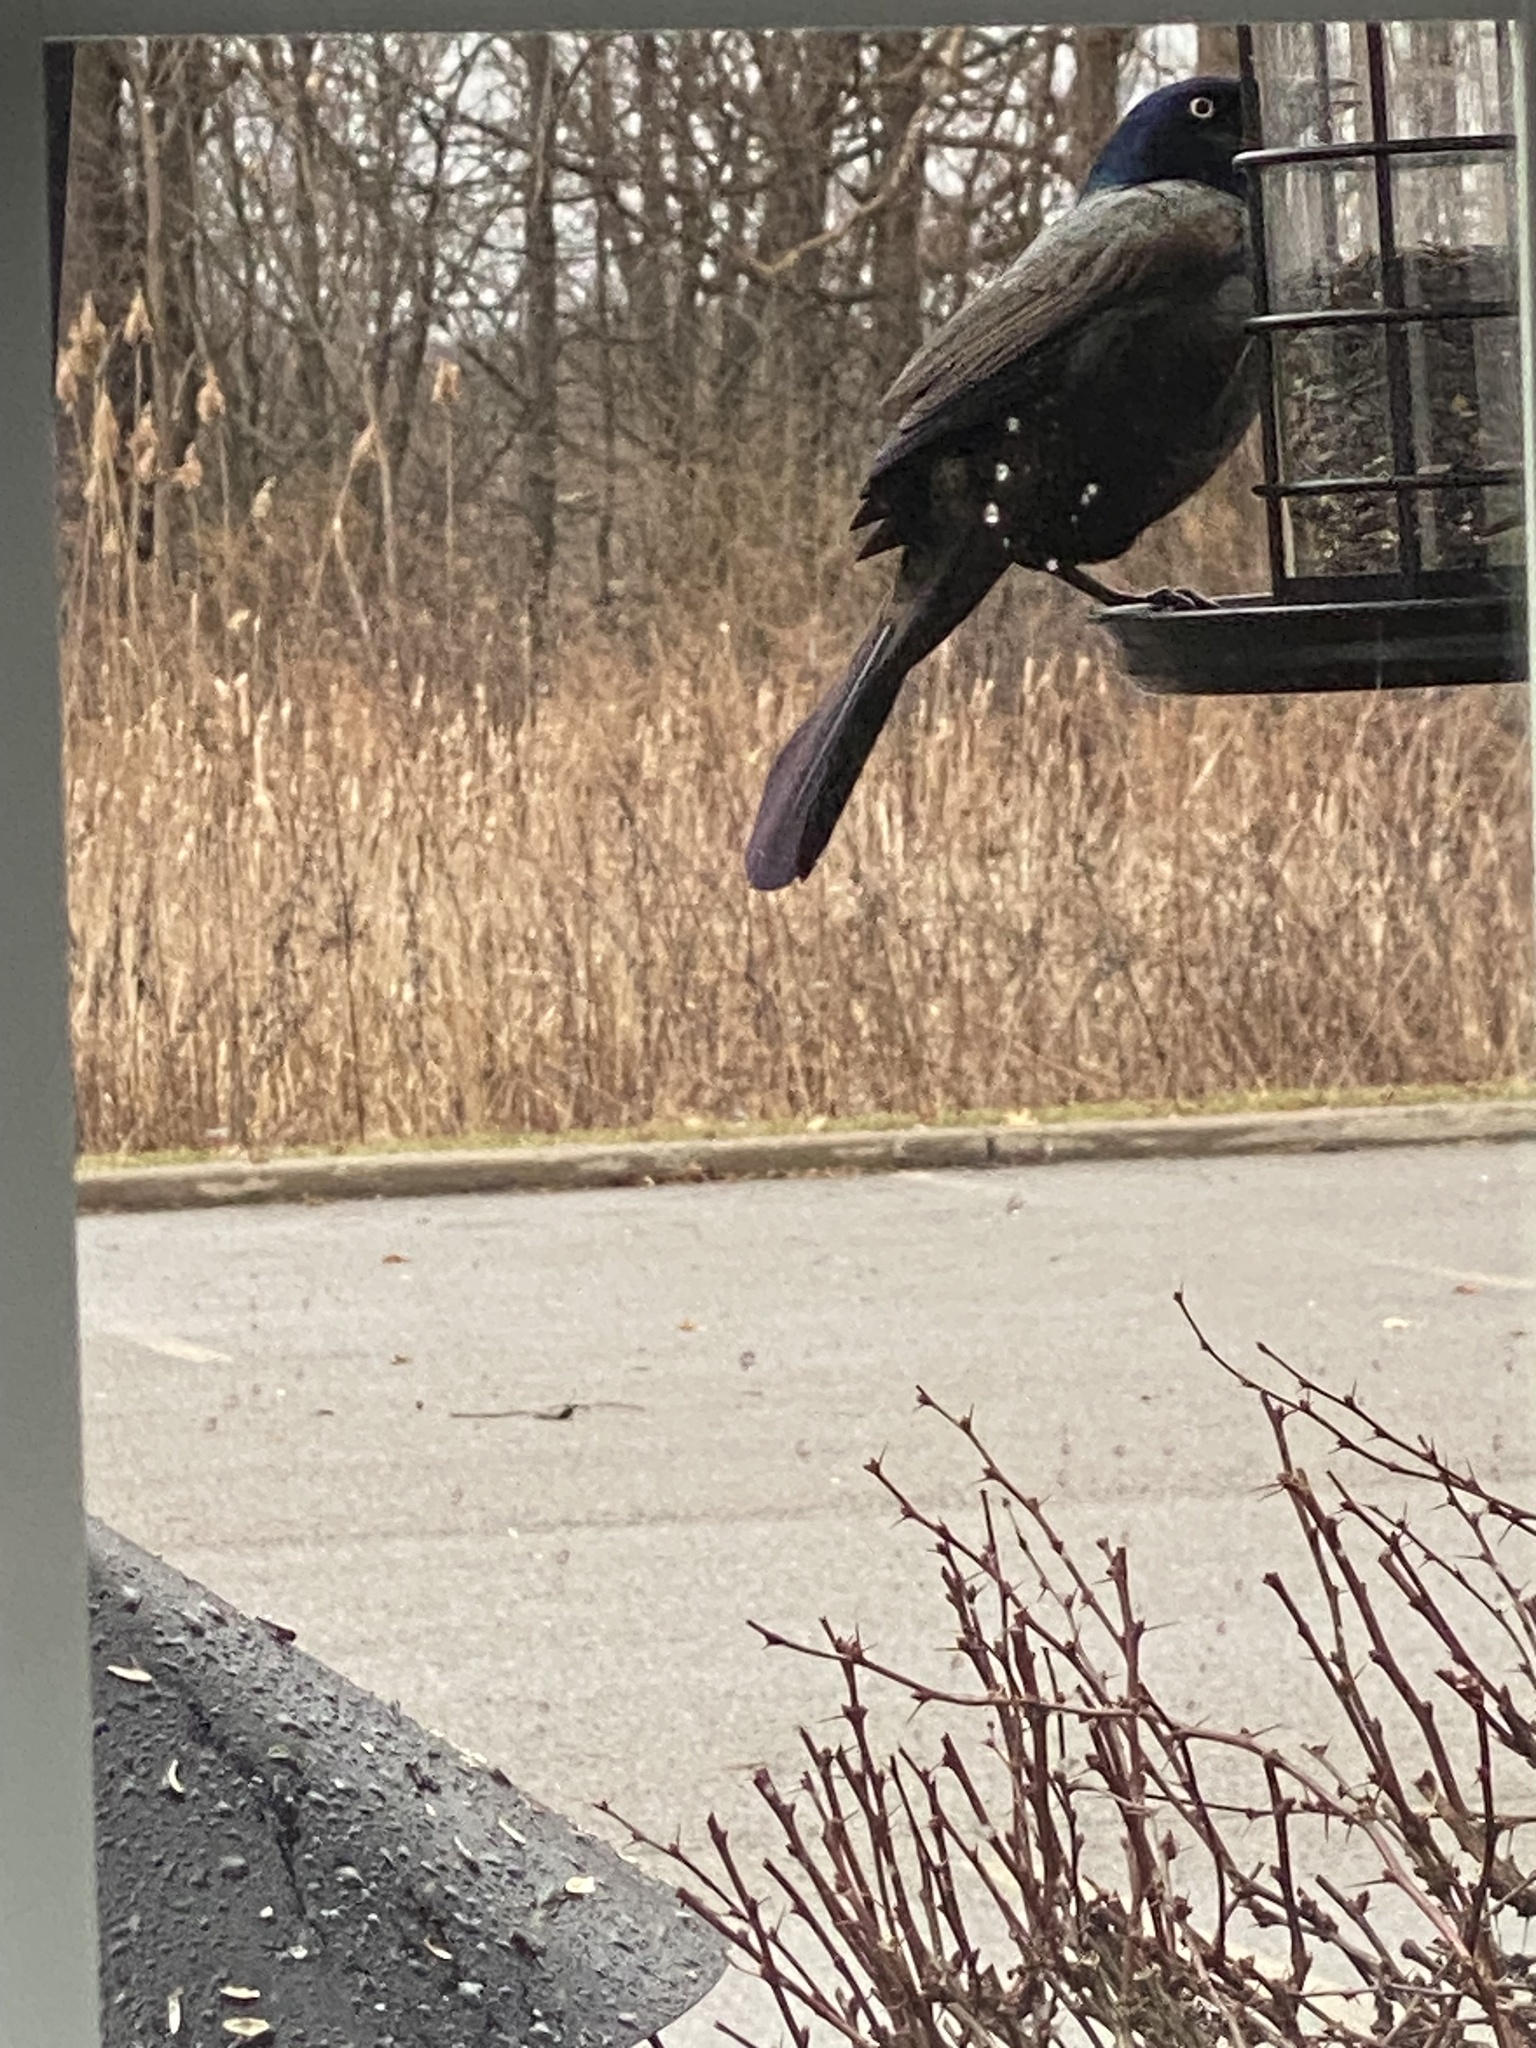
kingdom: Animalia
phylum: Chordata
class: Aves
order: Passeriformes
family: Icteridae
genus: Quiscalus
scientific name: Quiscalus quiscula
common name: Common grackle
